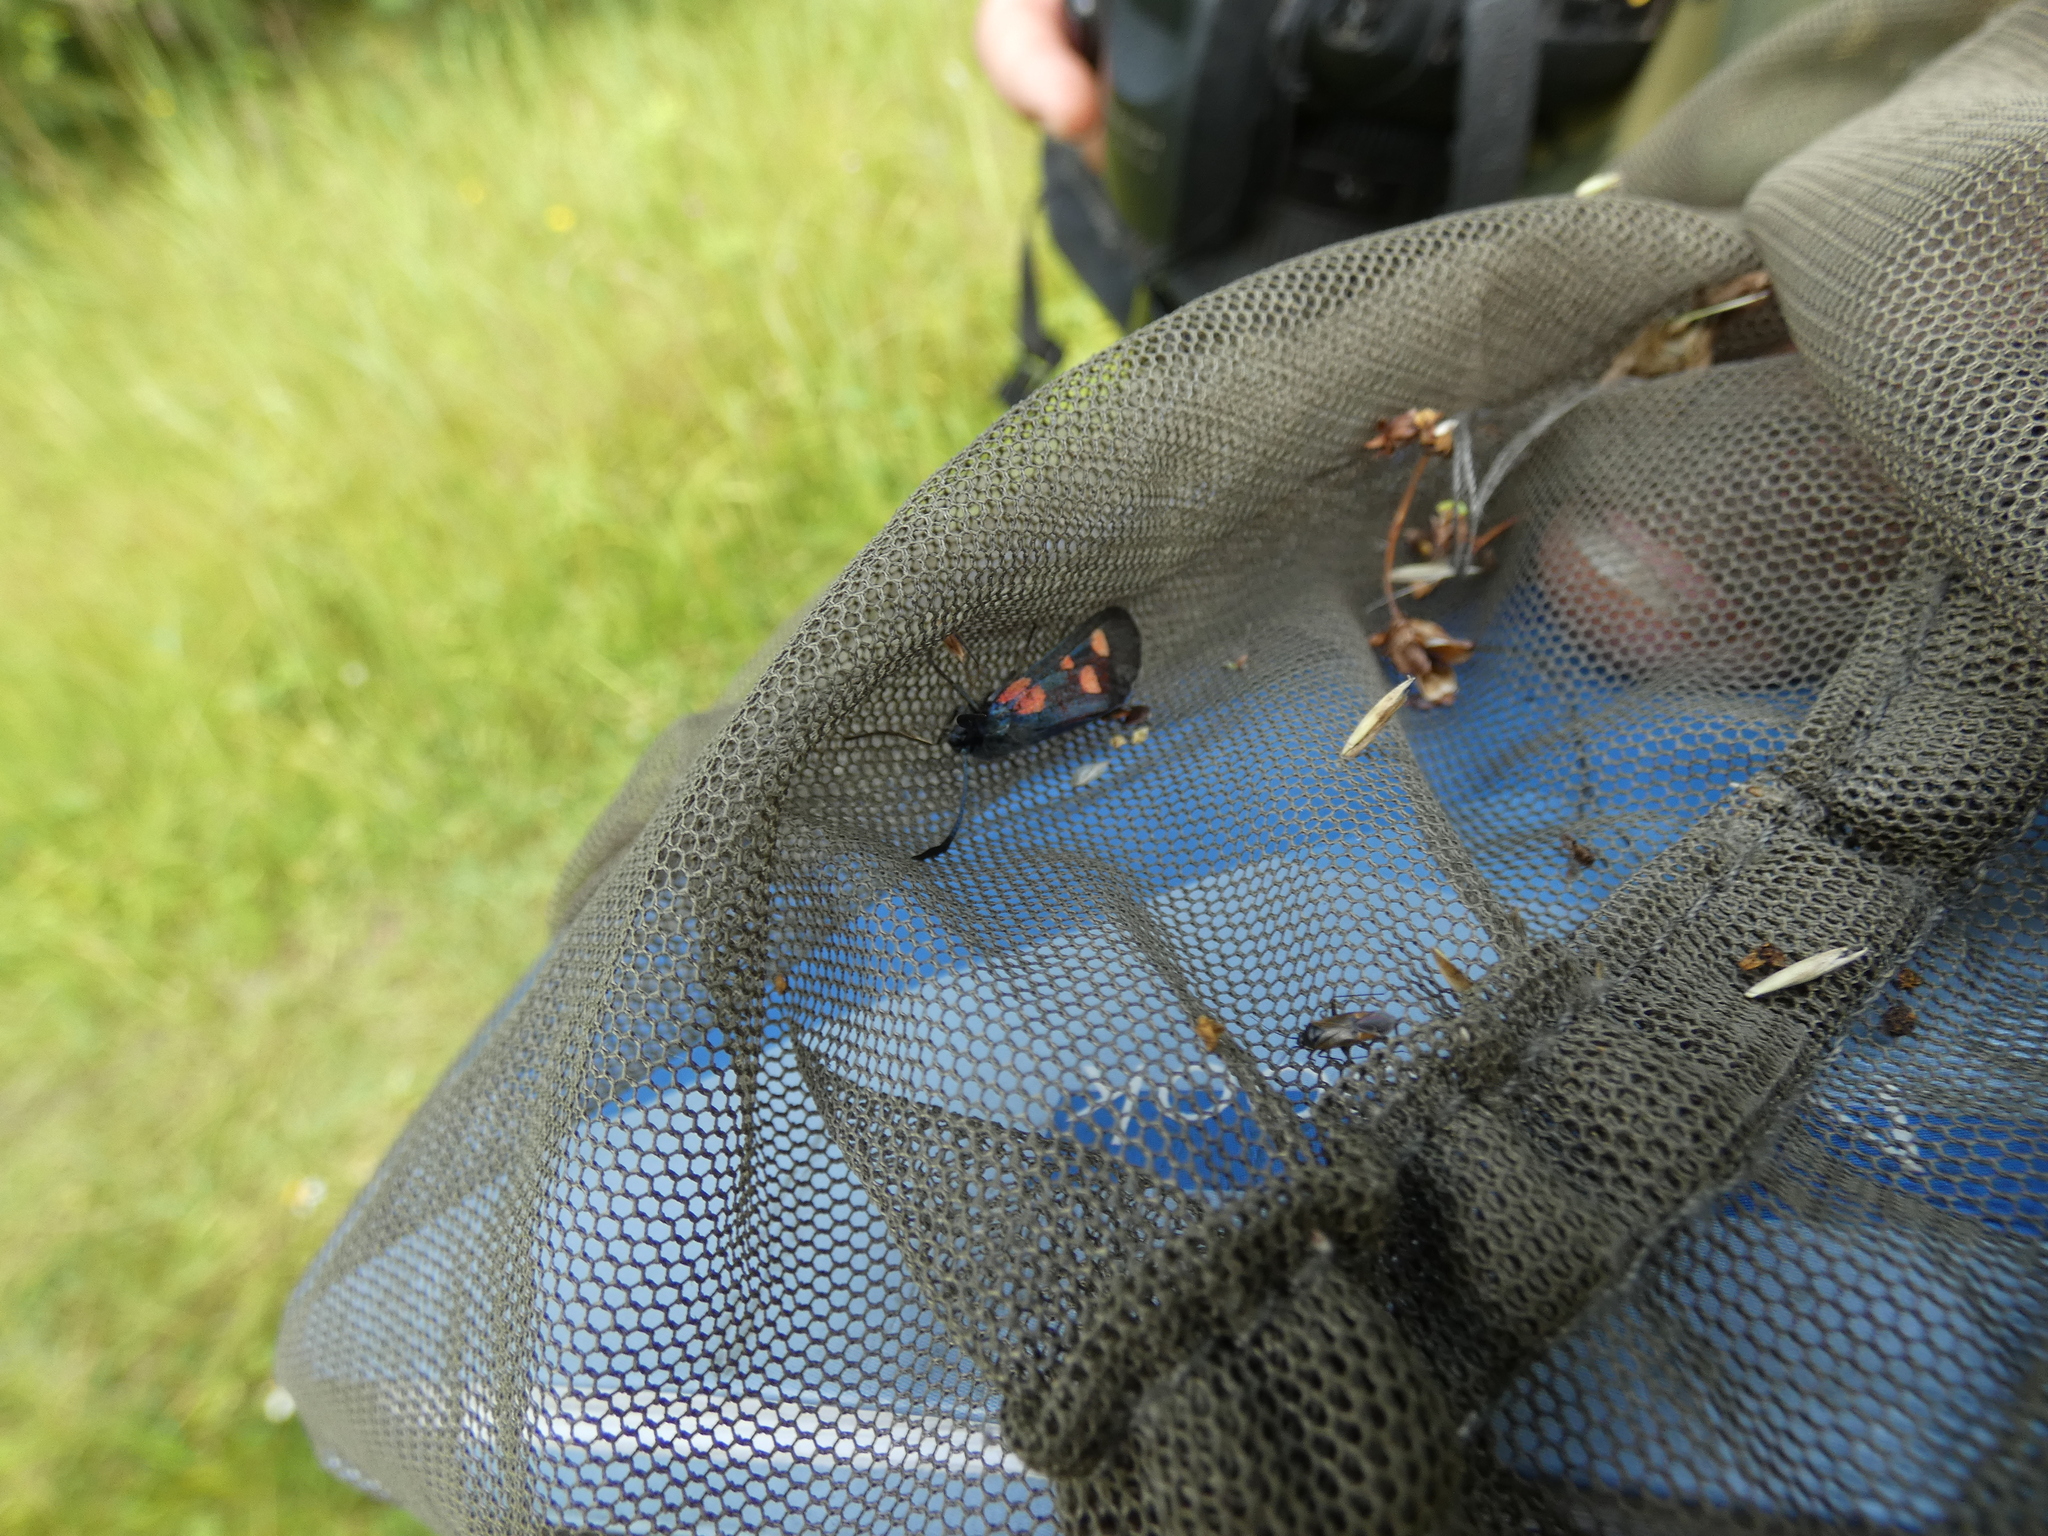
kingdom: Animalia
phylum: Arthropoda
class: Insecta
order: Lepidoptera
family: Zygaenidae
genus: Zygaena
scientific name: Zygaena lonicerae
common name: Narrow-bordered five-spot burnet
